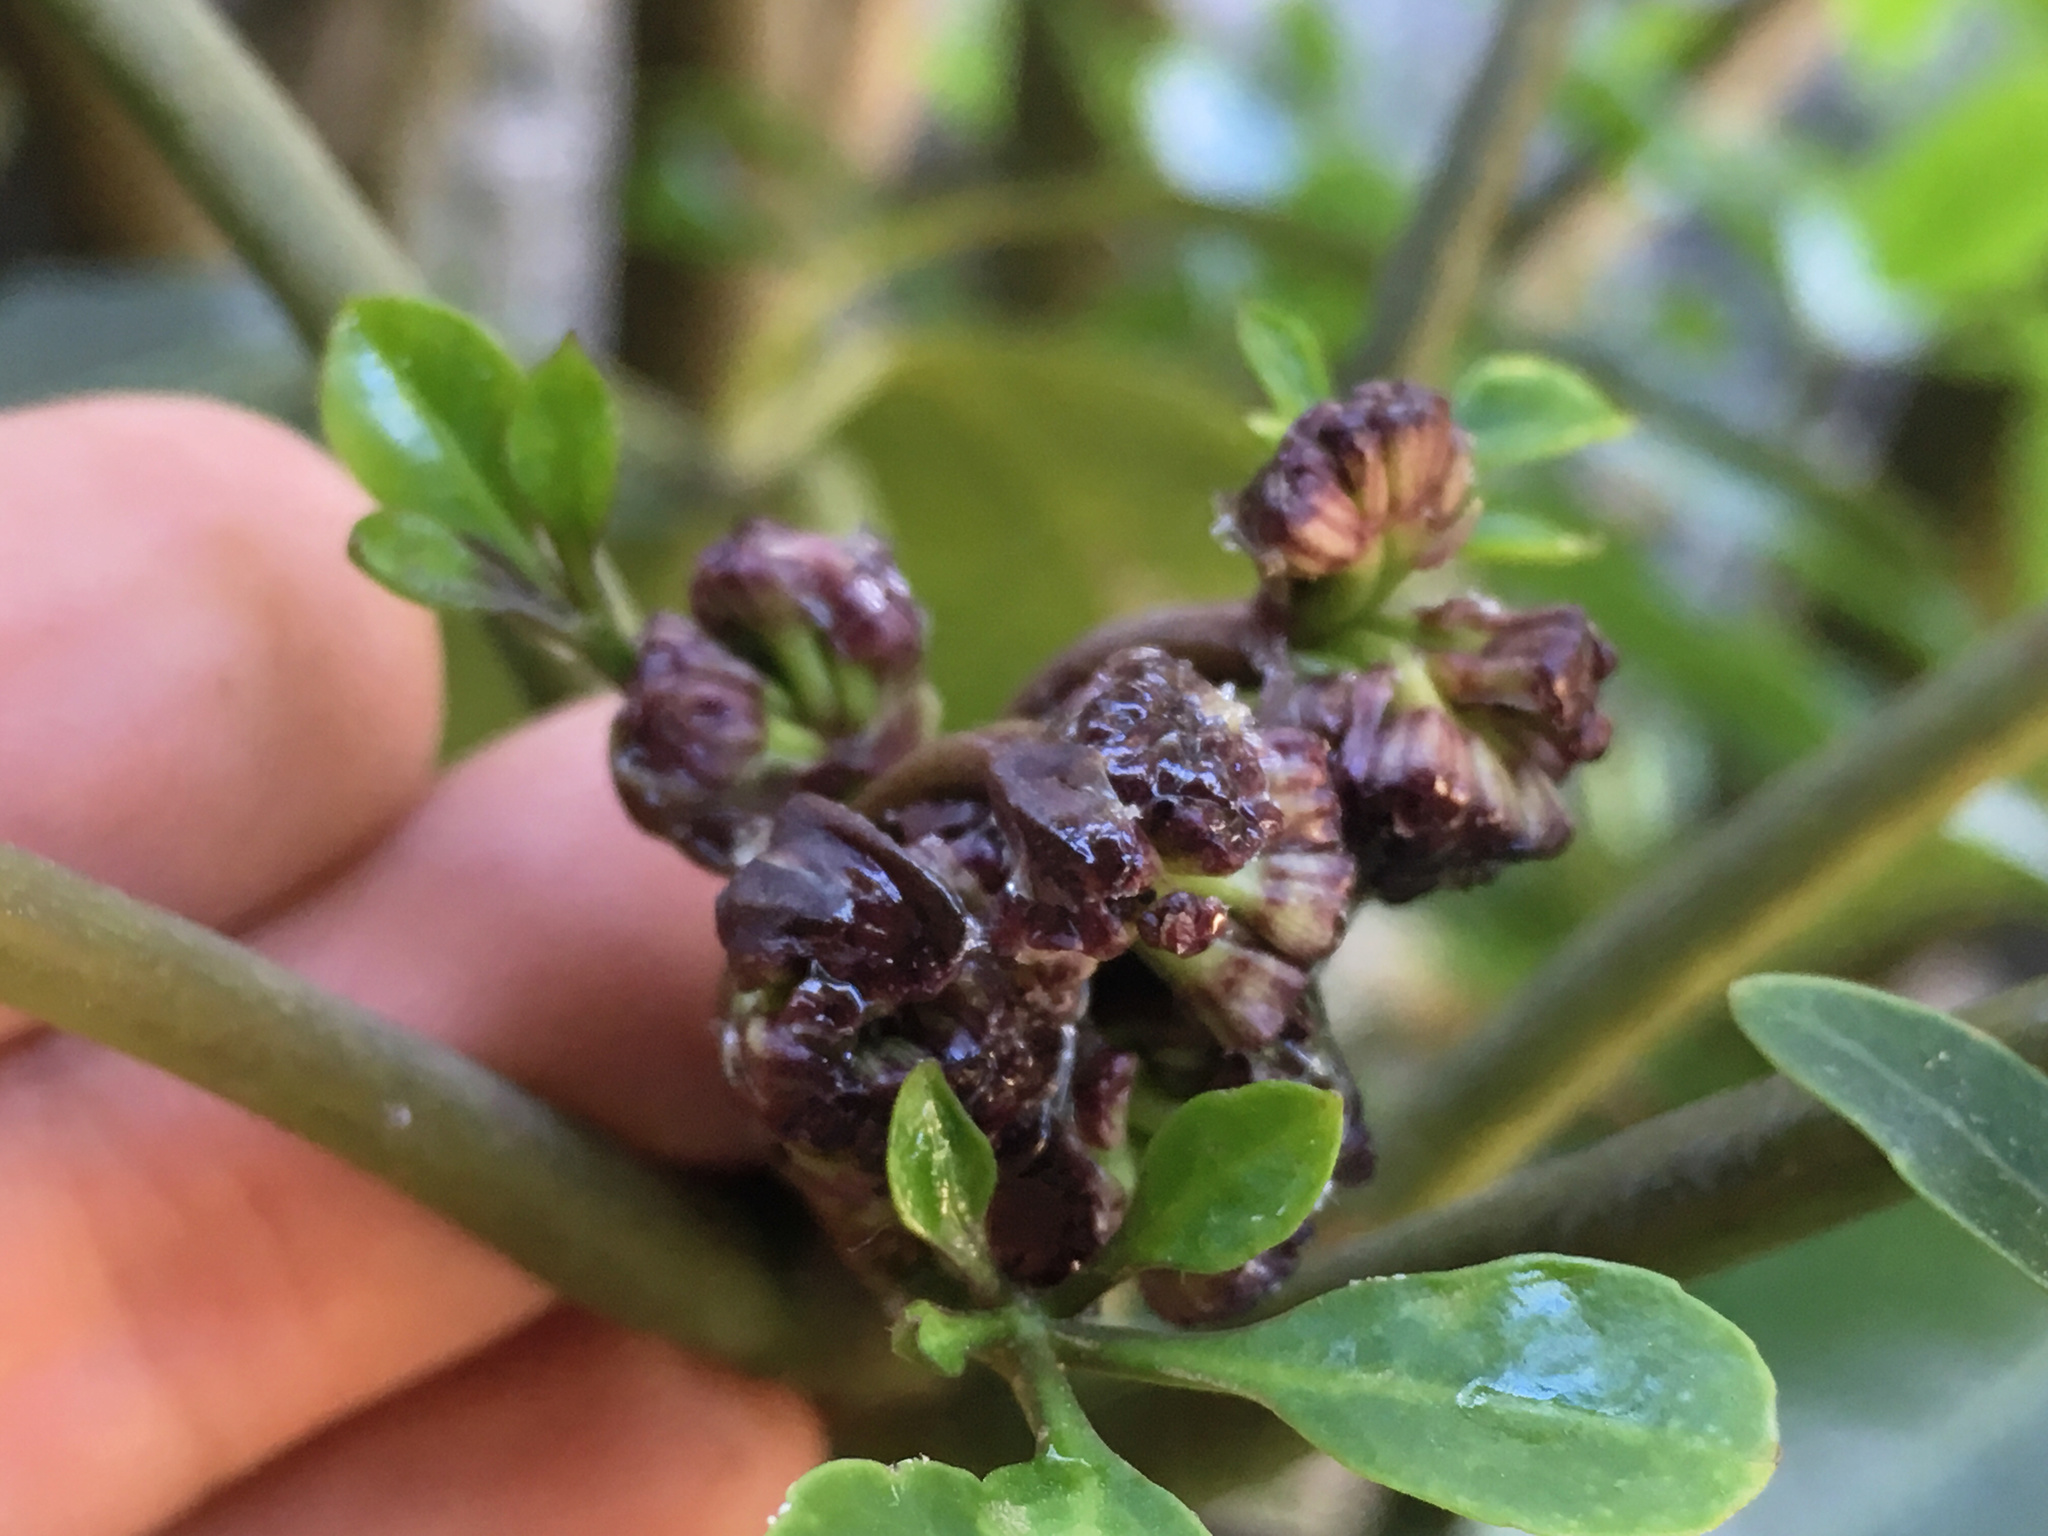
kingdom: Plantae
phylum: Tracheophyta
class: Magnoliopsida
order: Apiales
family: Araliaceae
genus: Neopanax
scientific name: Neopanax arboreus
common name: Five-fingers
